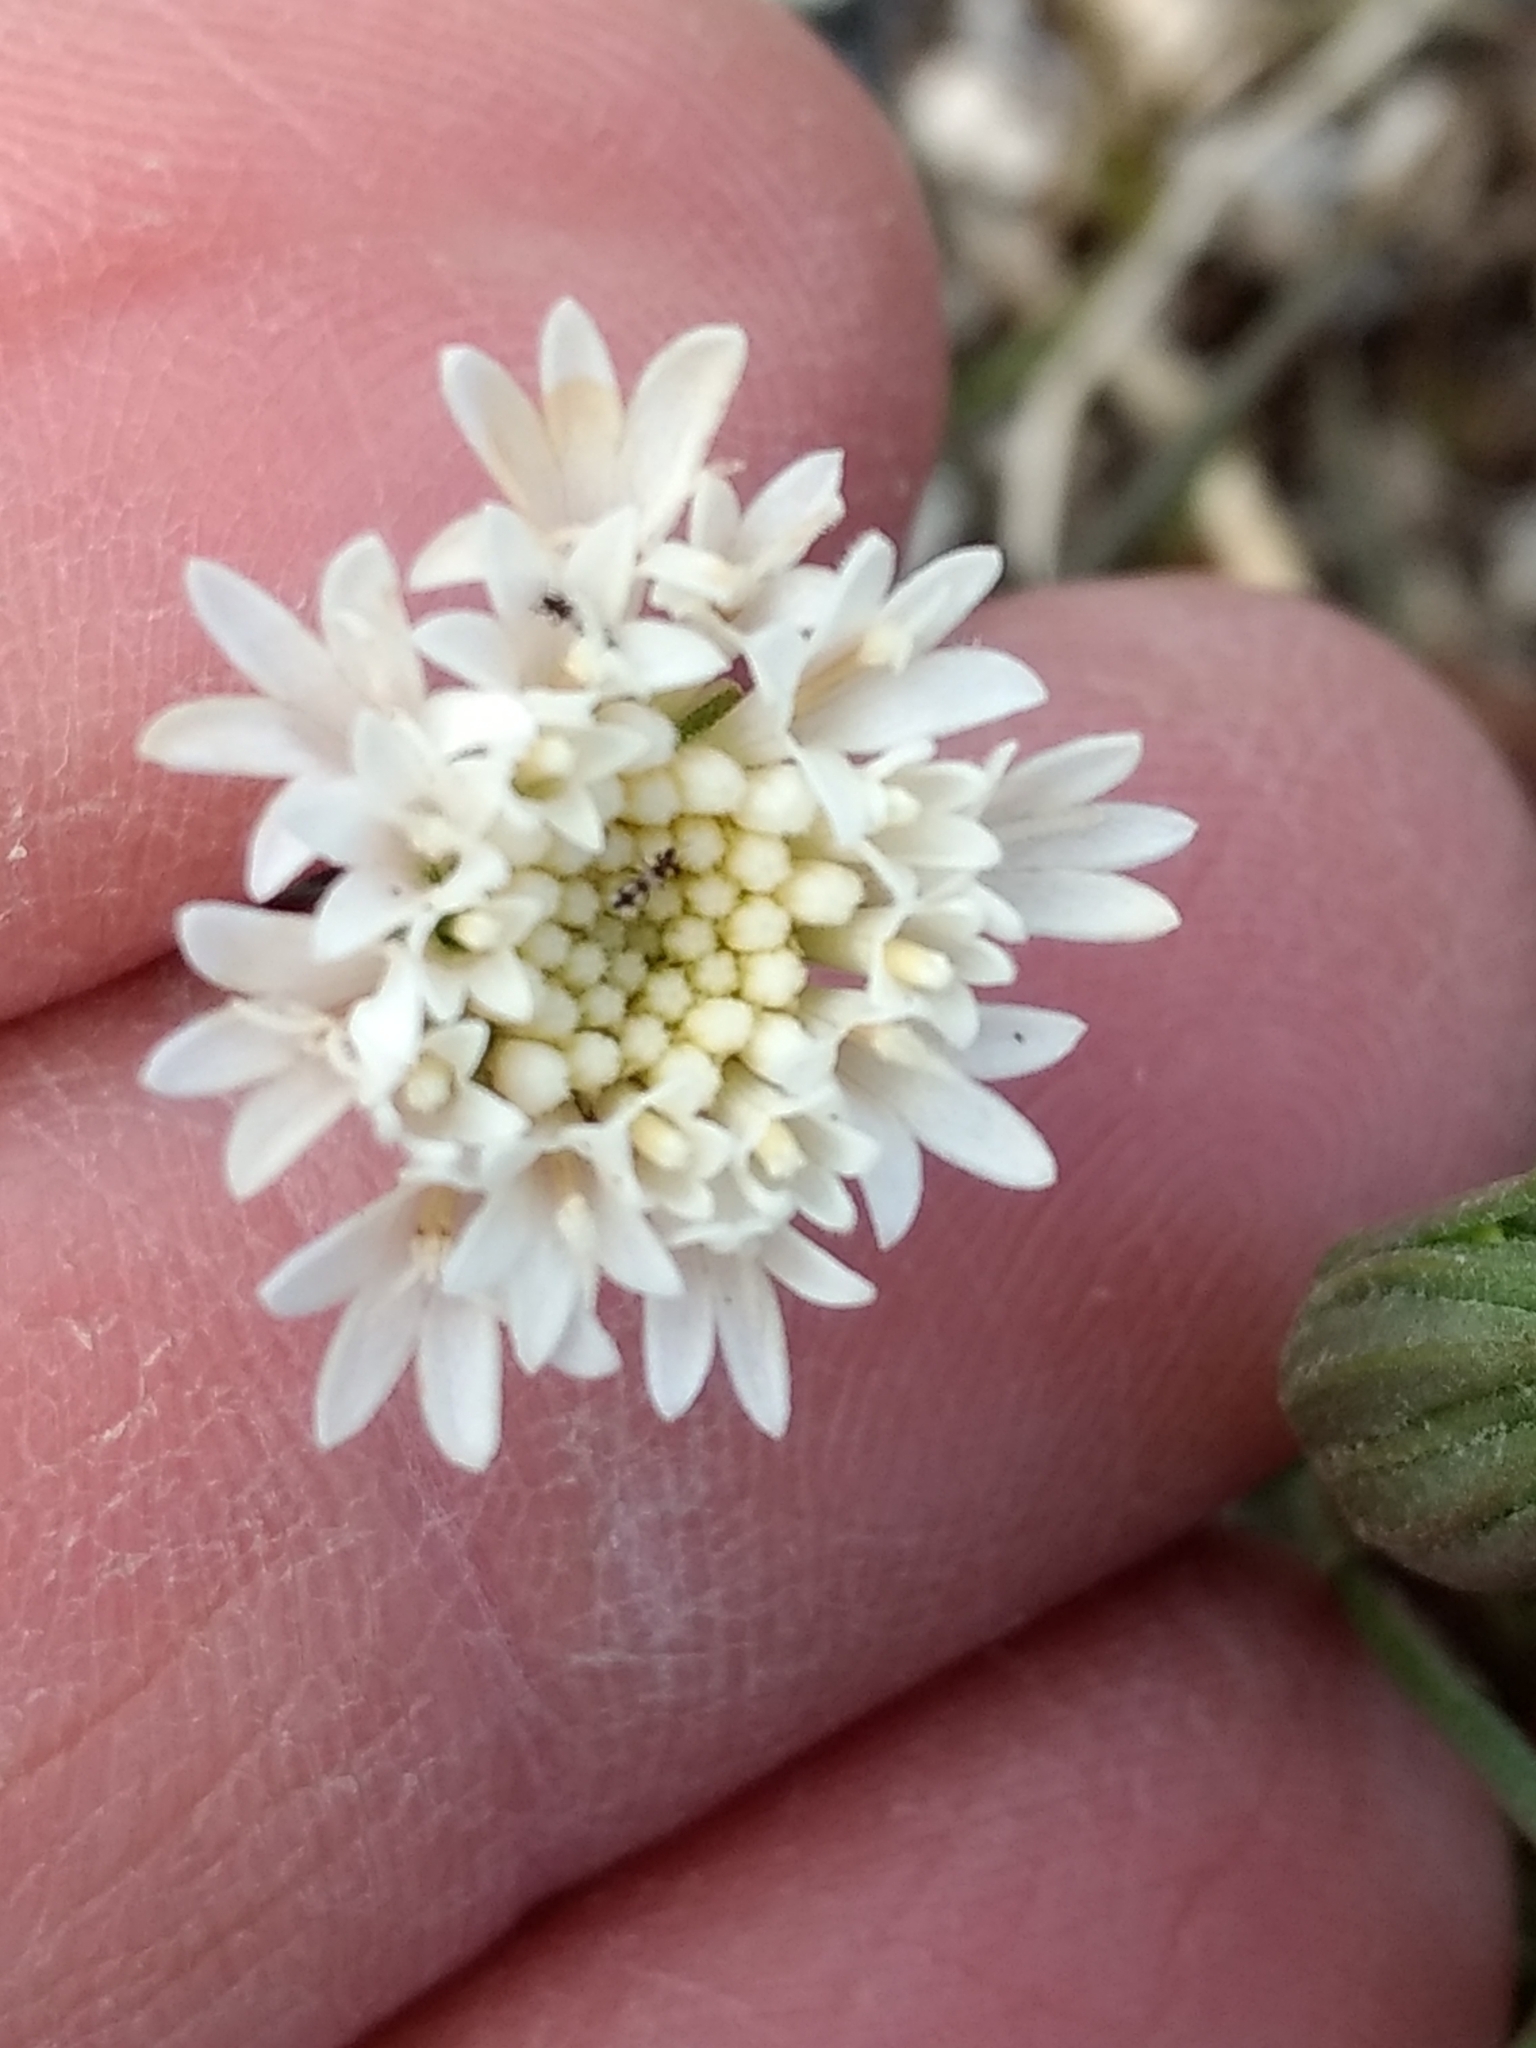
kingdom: Plantae
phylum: Tracheophyta
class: Magnoliopsida
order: Asterales
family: Asteraceae
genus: Chaenactis
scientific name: Chaenactis fremontii
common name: Fremont pincushion
